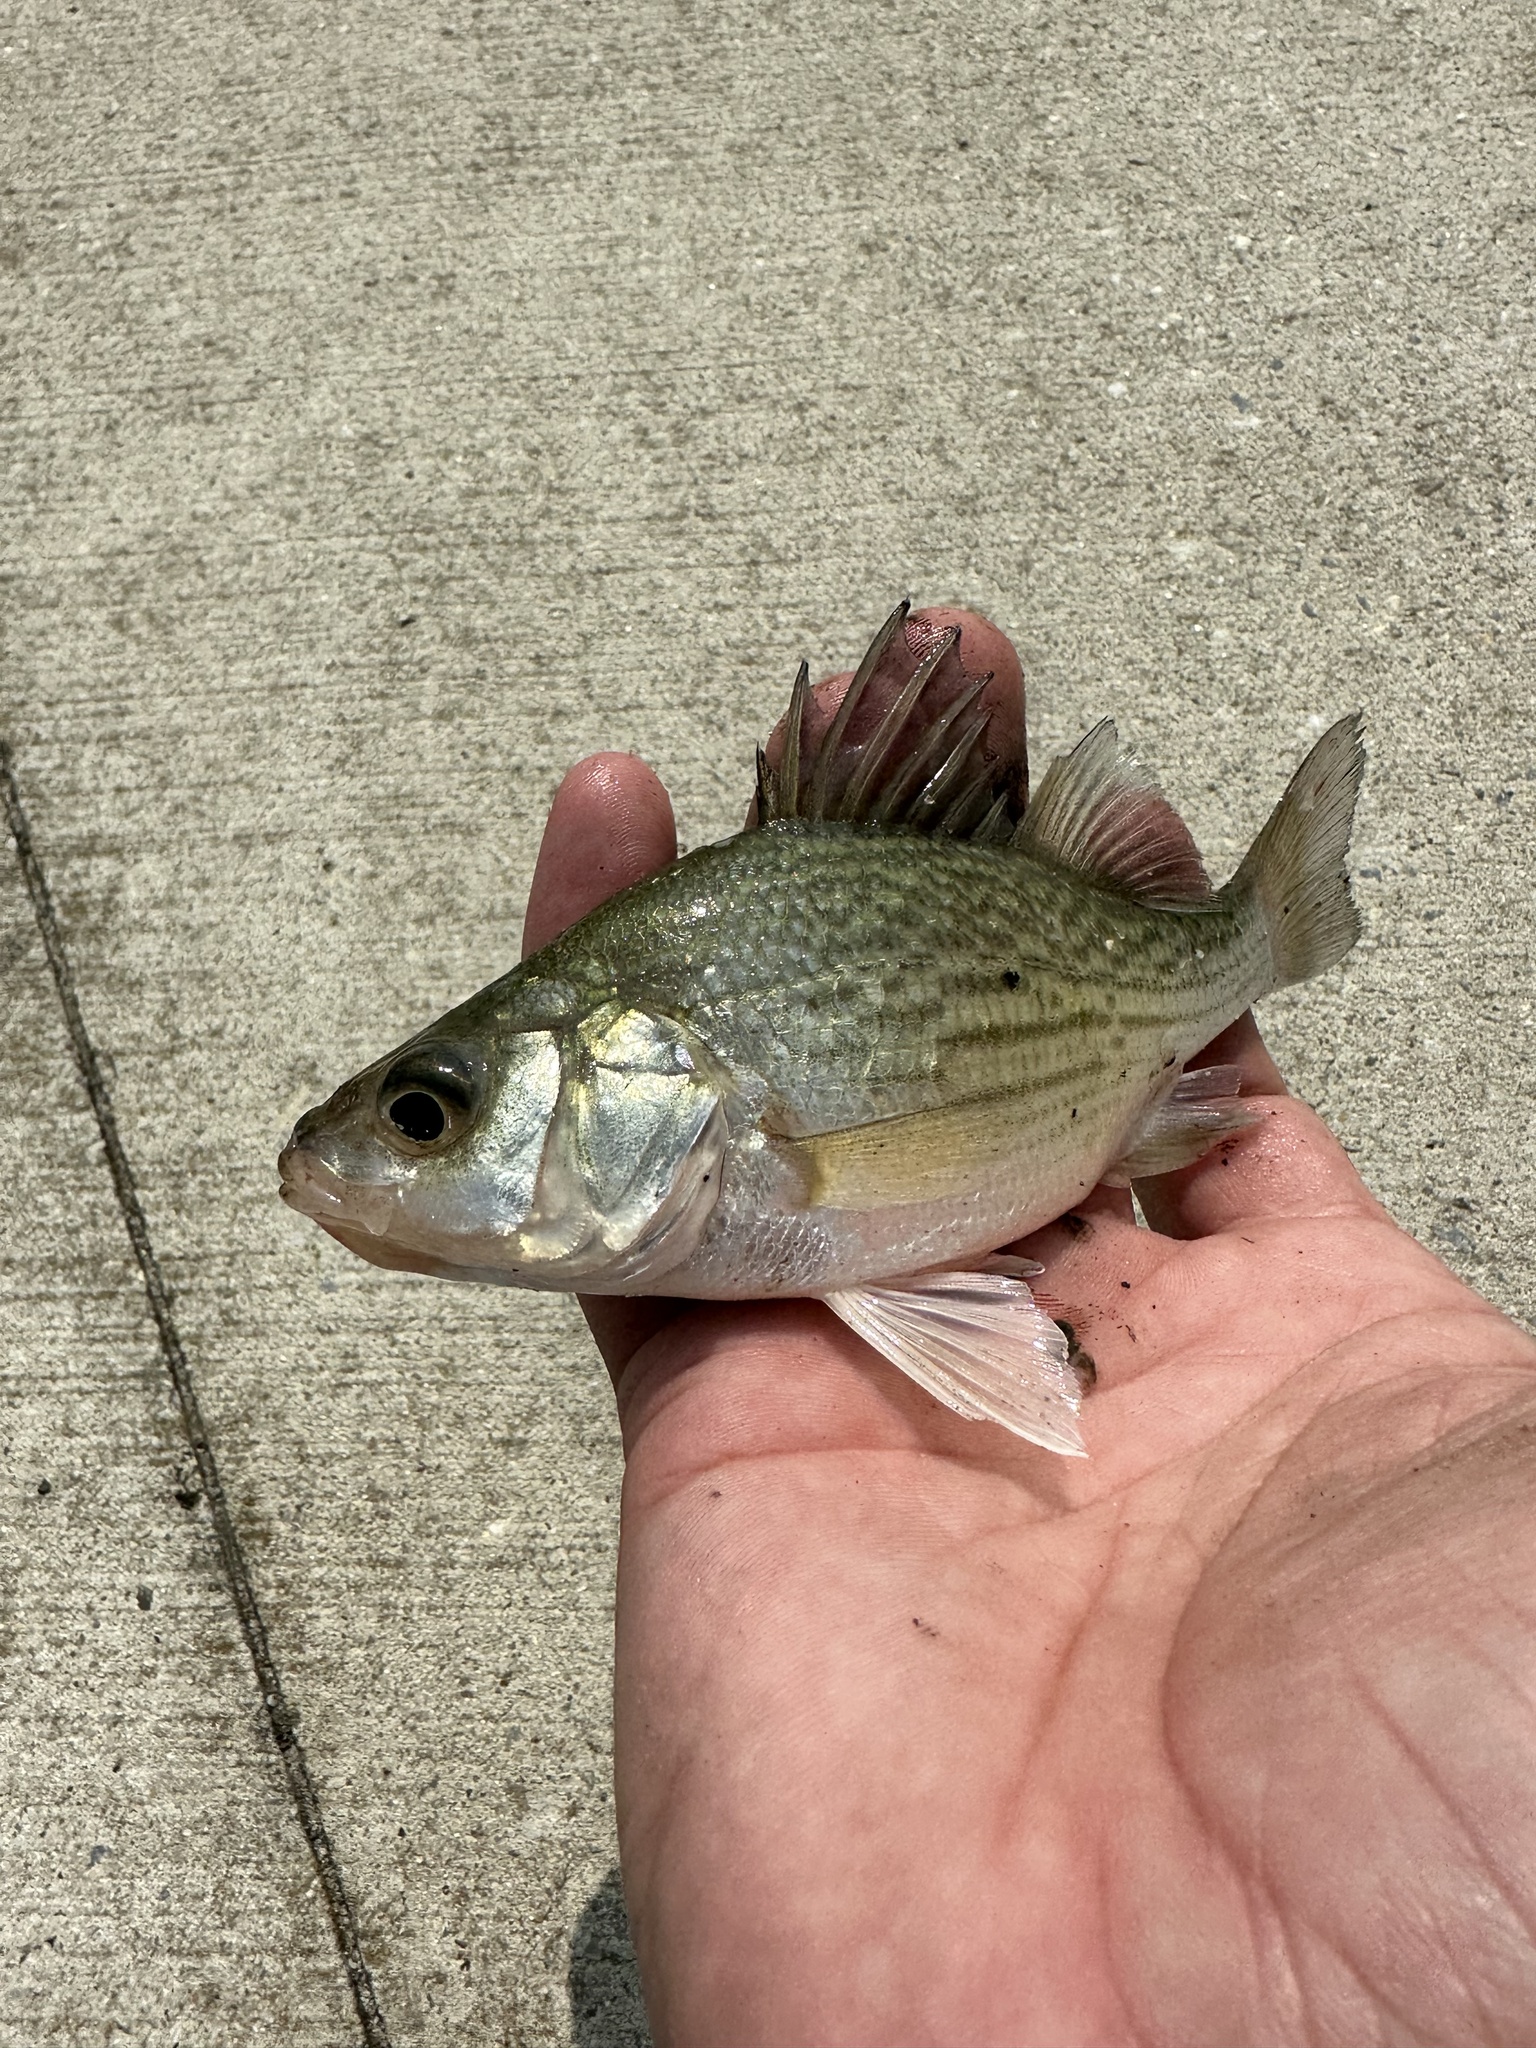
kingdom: Animalia
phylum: Chordata
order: Perciformes
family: Moronidae
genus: Morone
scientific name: Morone americana
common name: White perch
